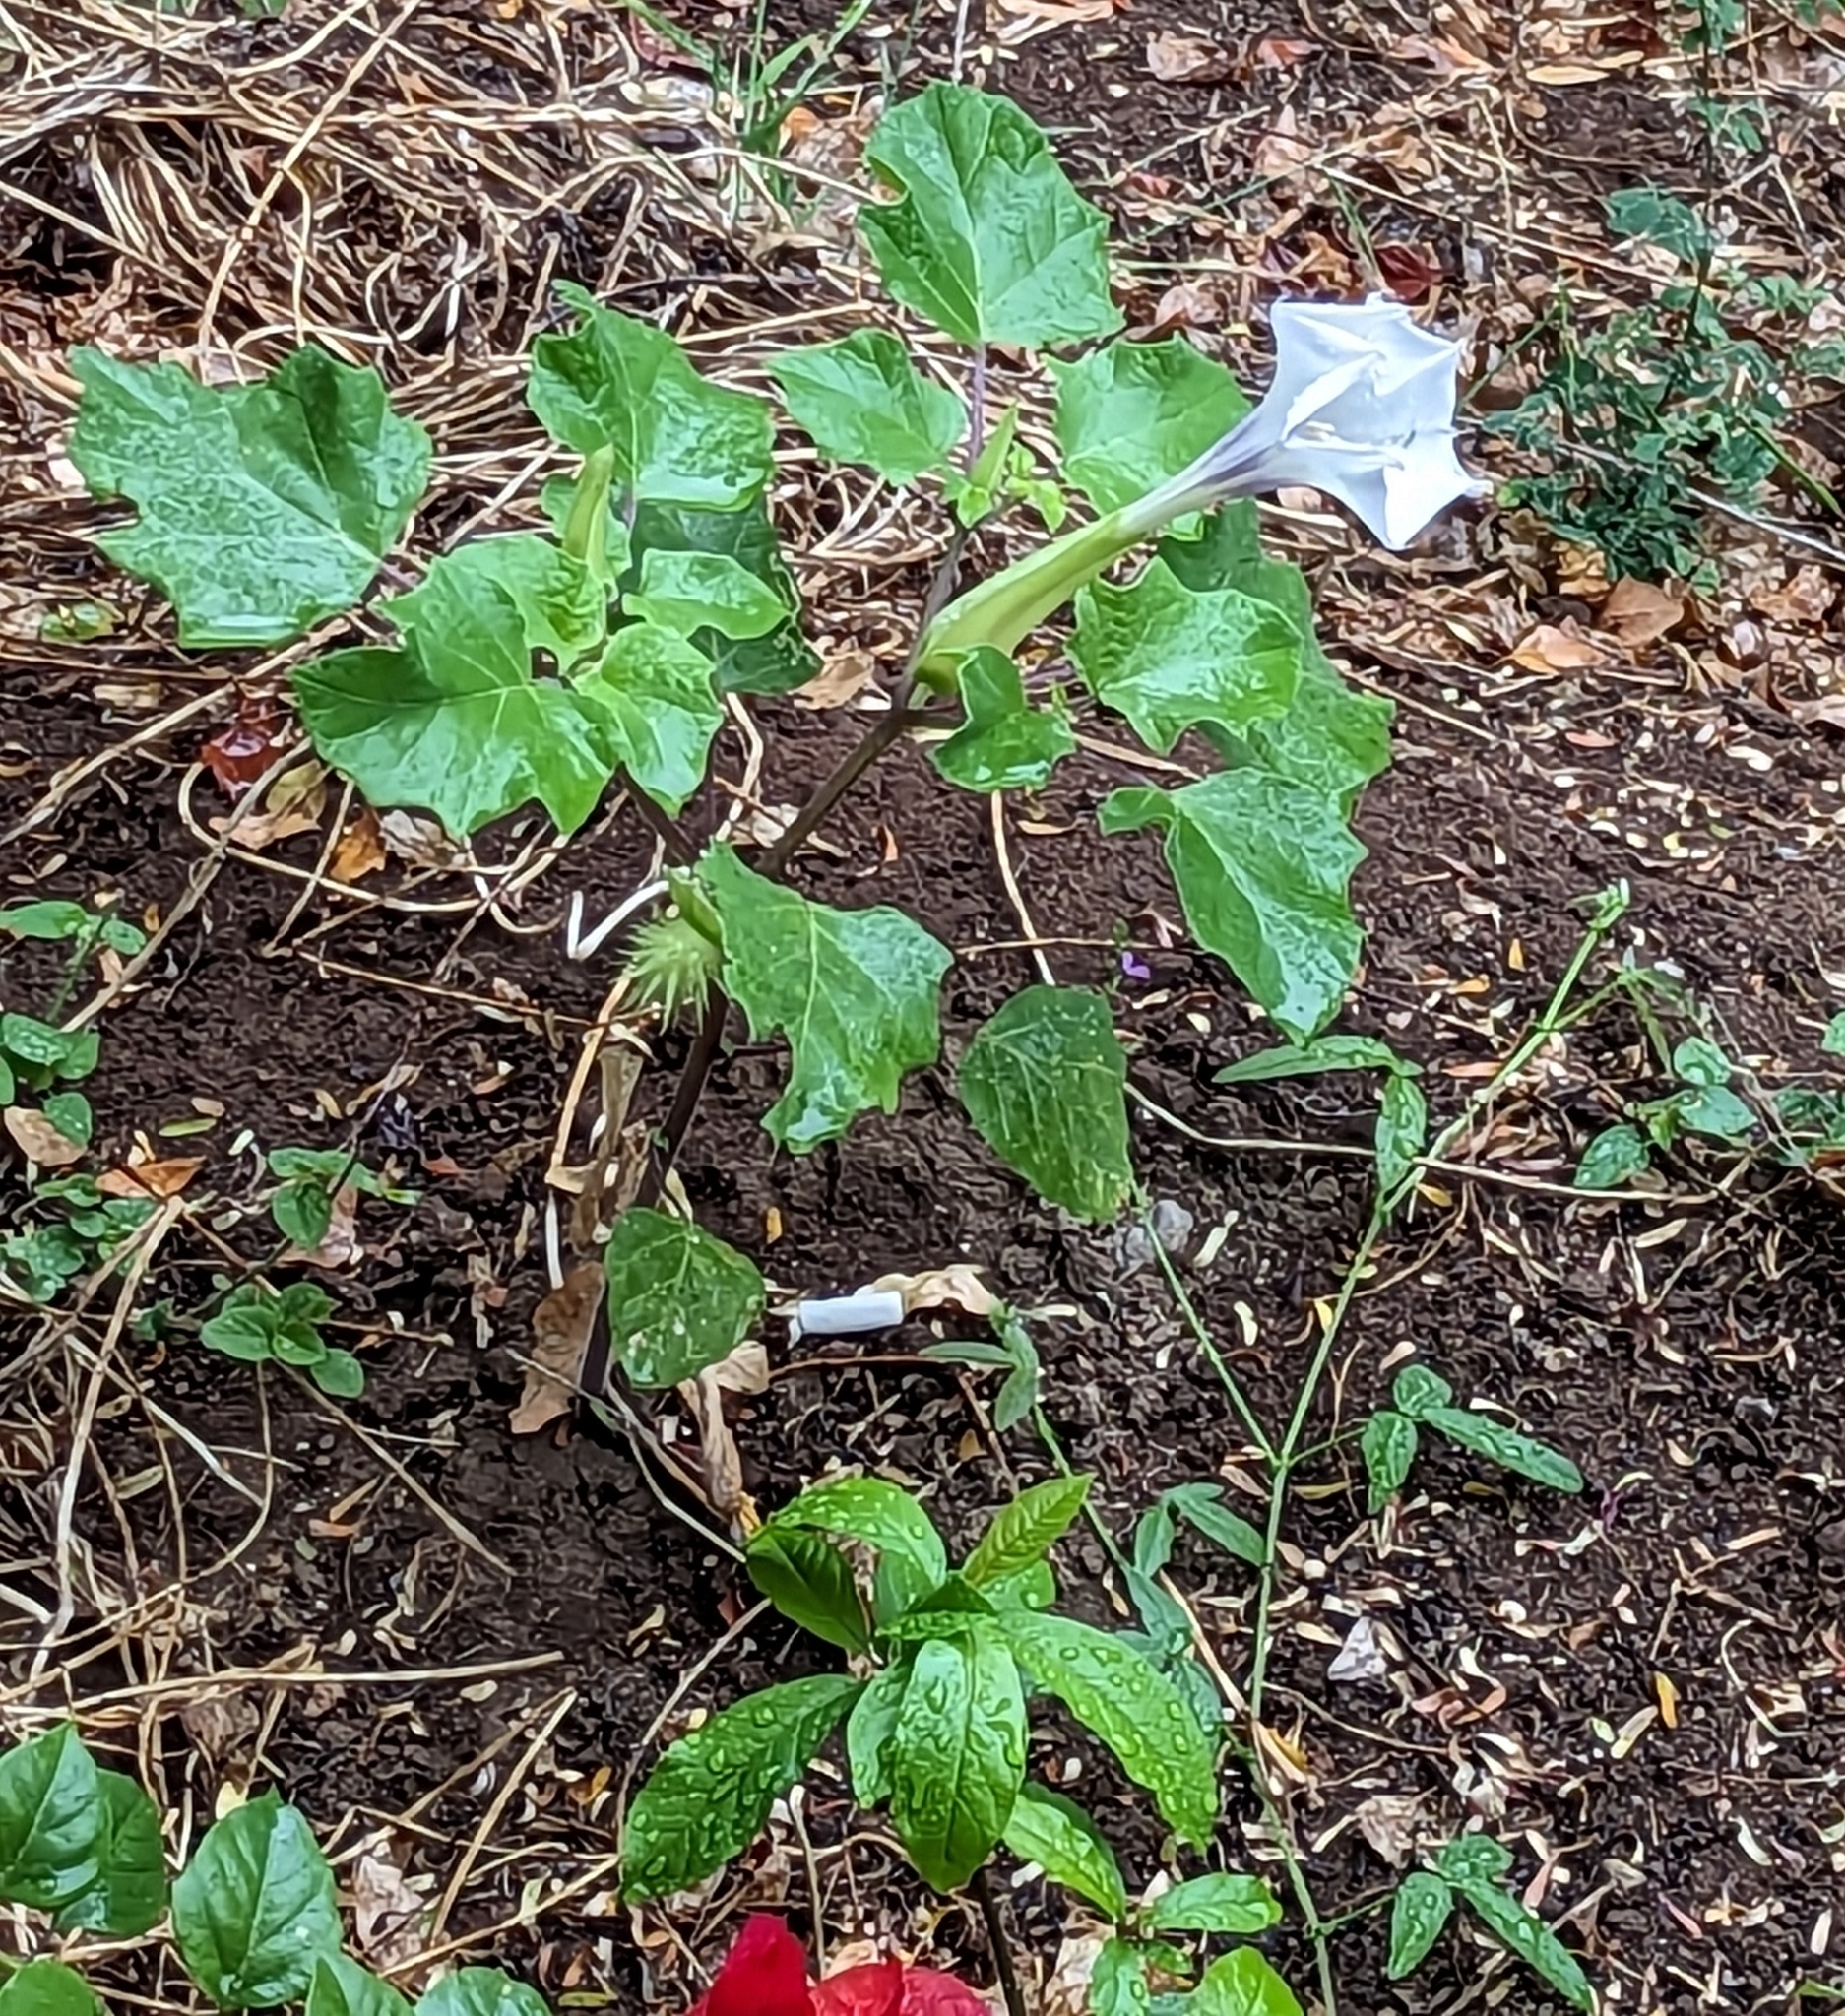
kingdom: Plantae
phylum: Tracheophyta
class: Magnoliopsida
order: Solanales
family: Solanaceae
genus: Datura
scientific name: Datura discolor
